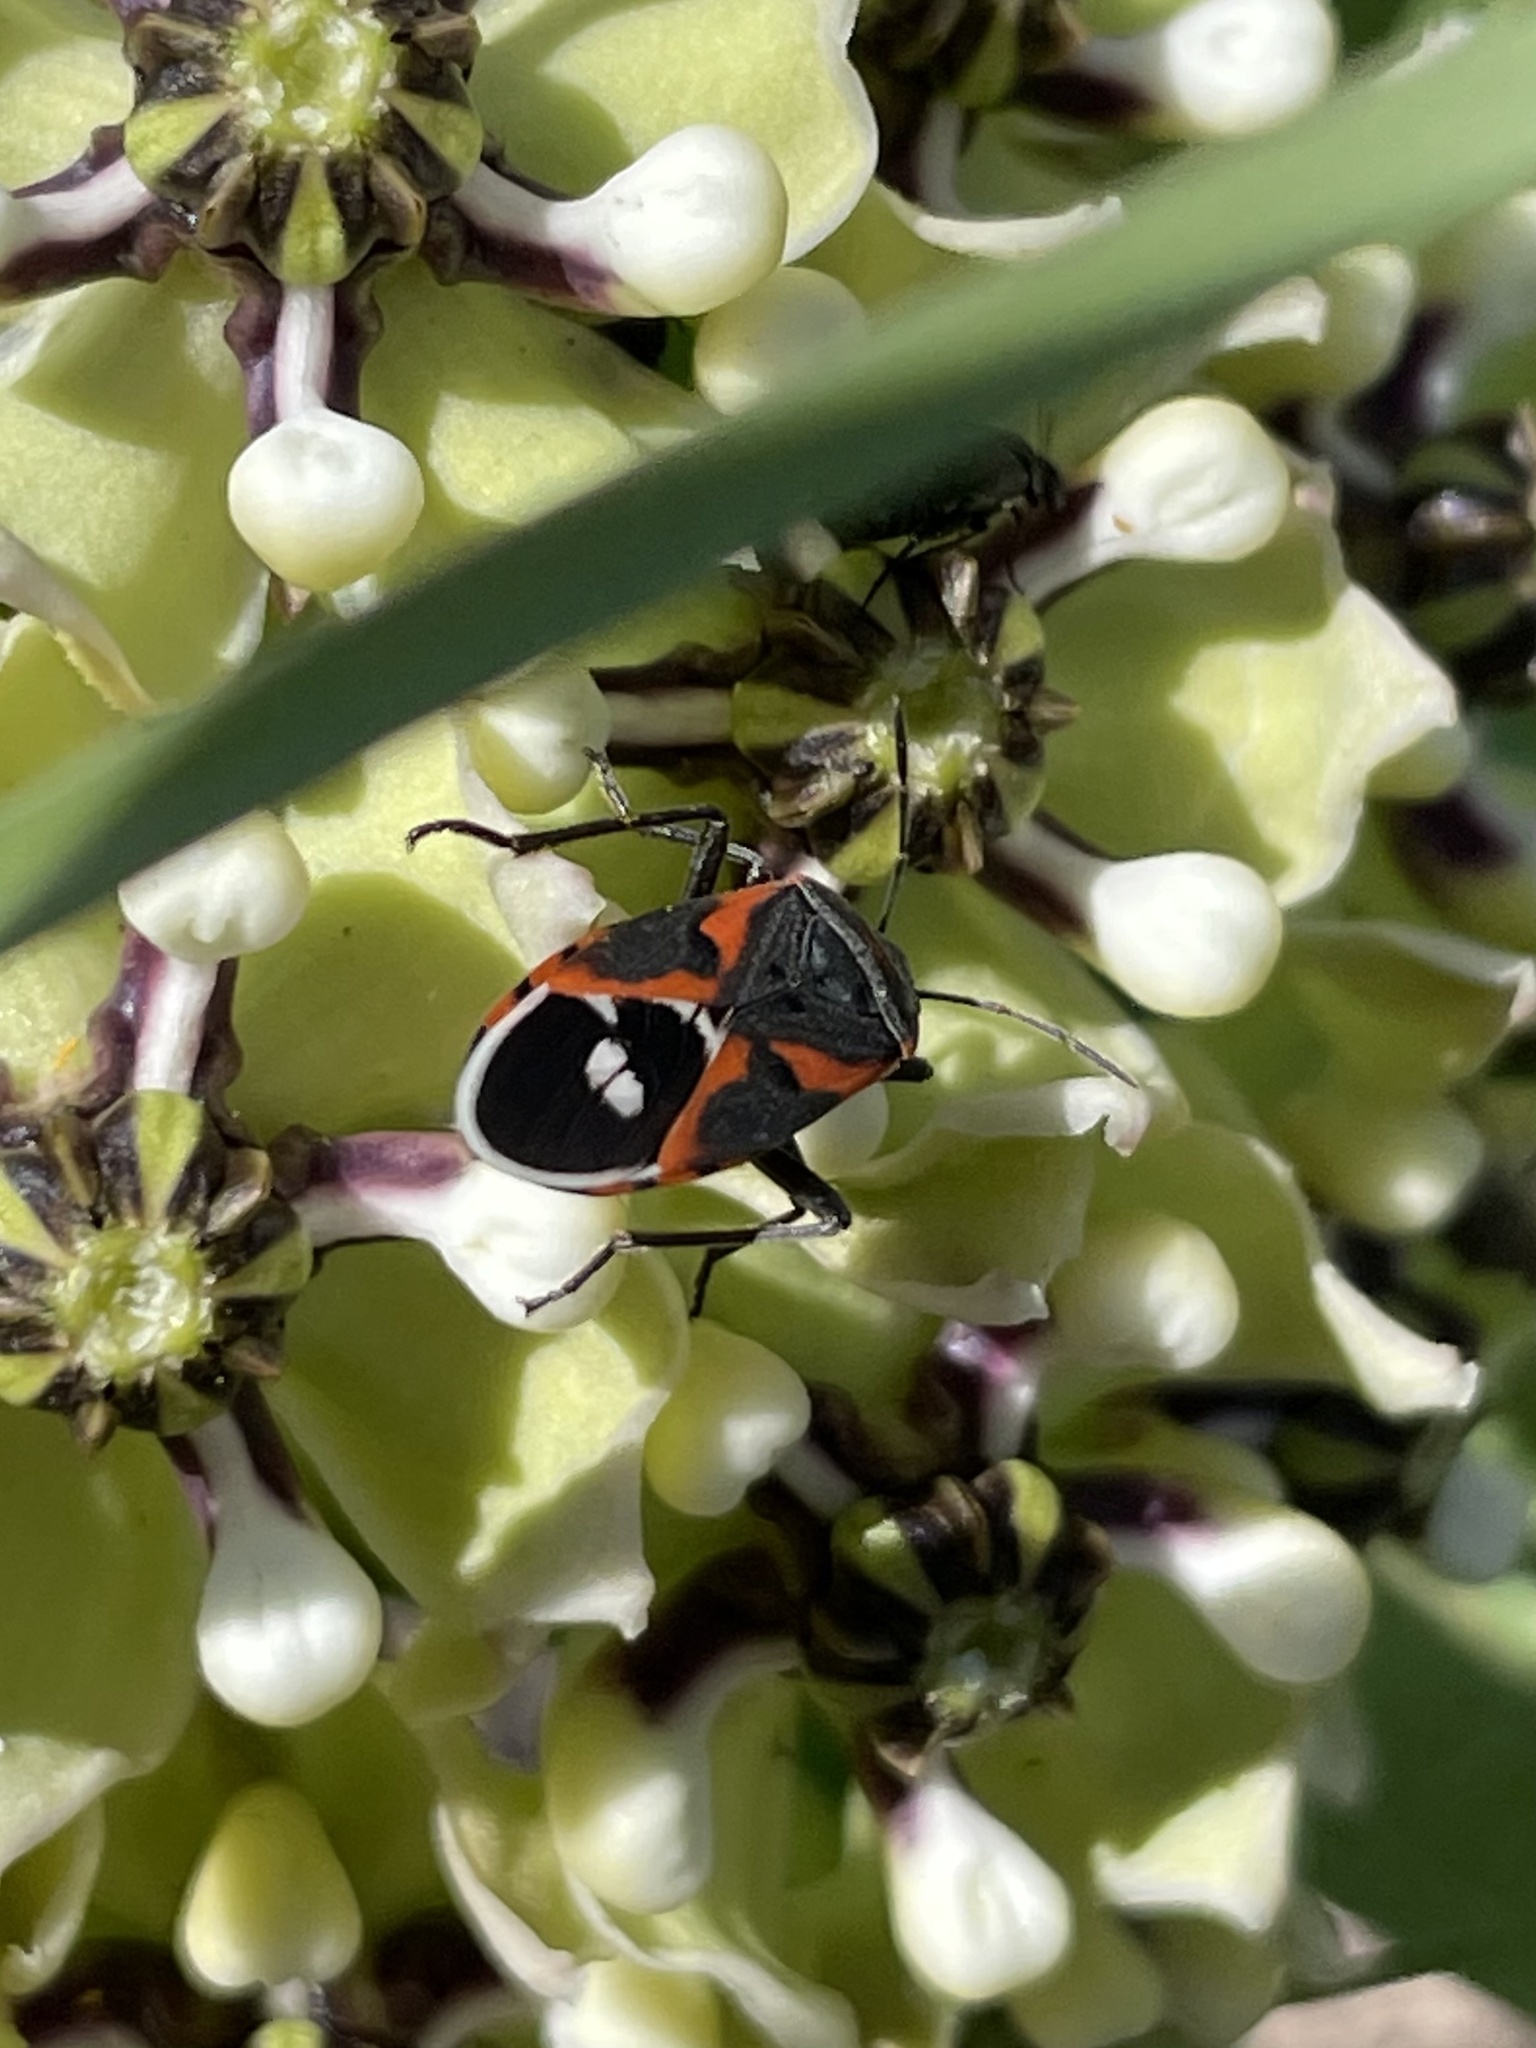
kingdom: Animalia
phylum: Arthropoda
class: Insecta
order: Hemiptera
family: Lygaeidae
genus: Lygaeus
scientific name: Lygaeus kalmii
